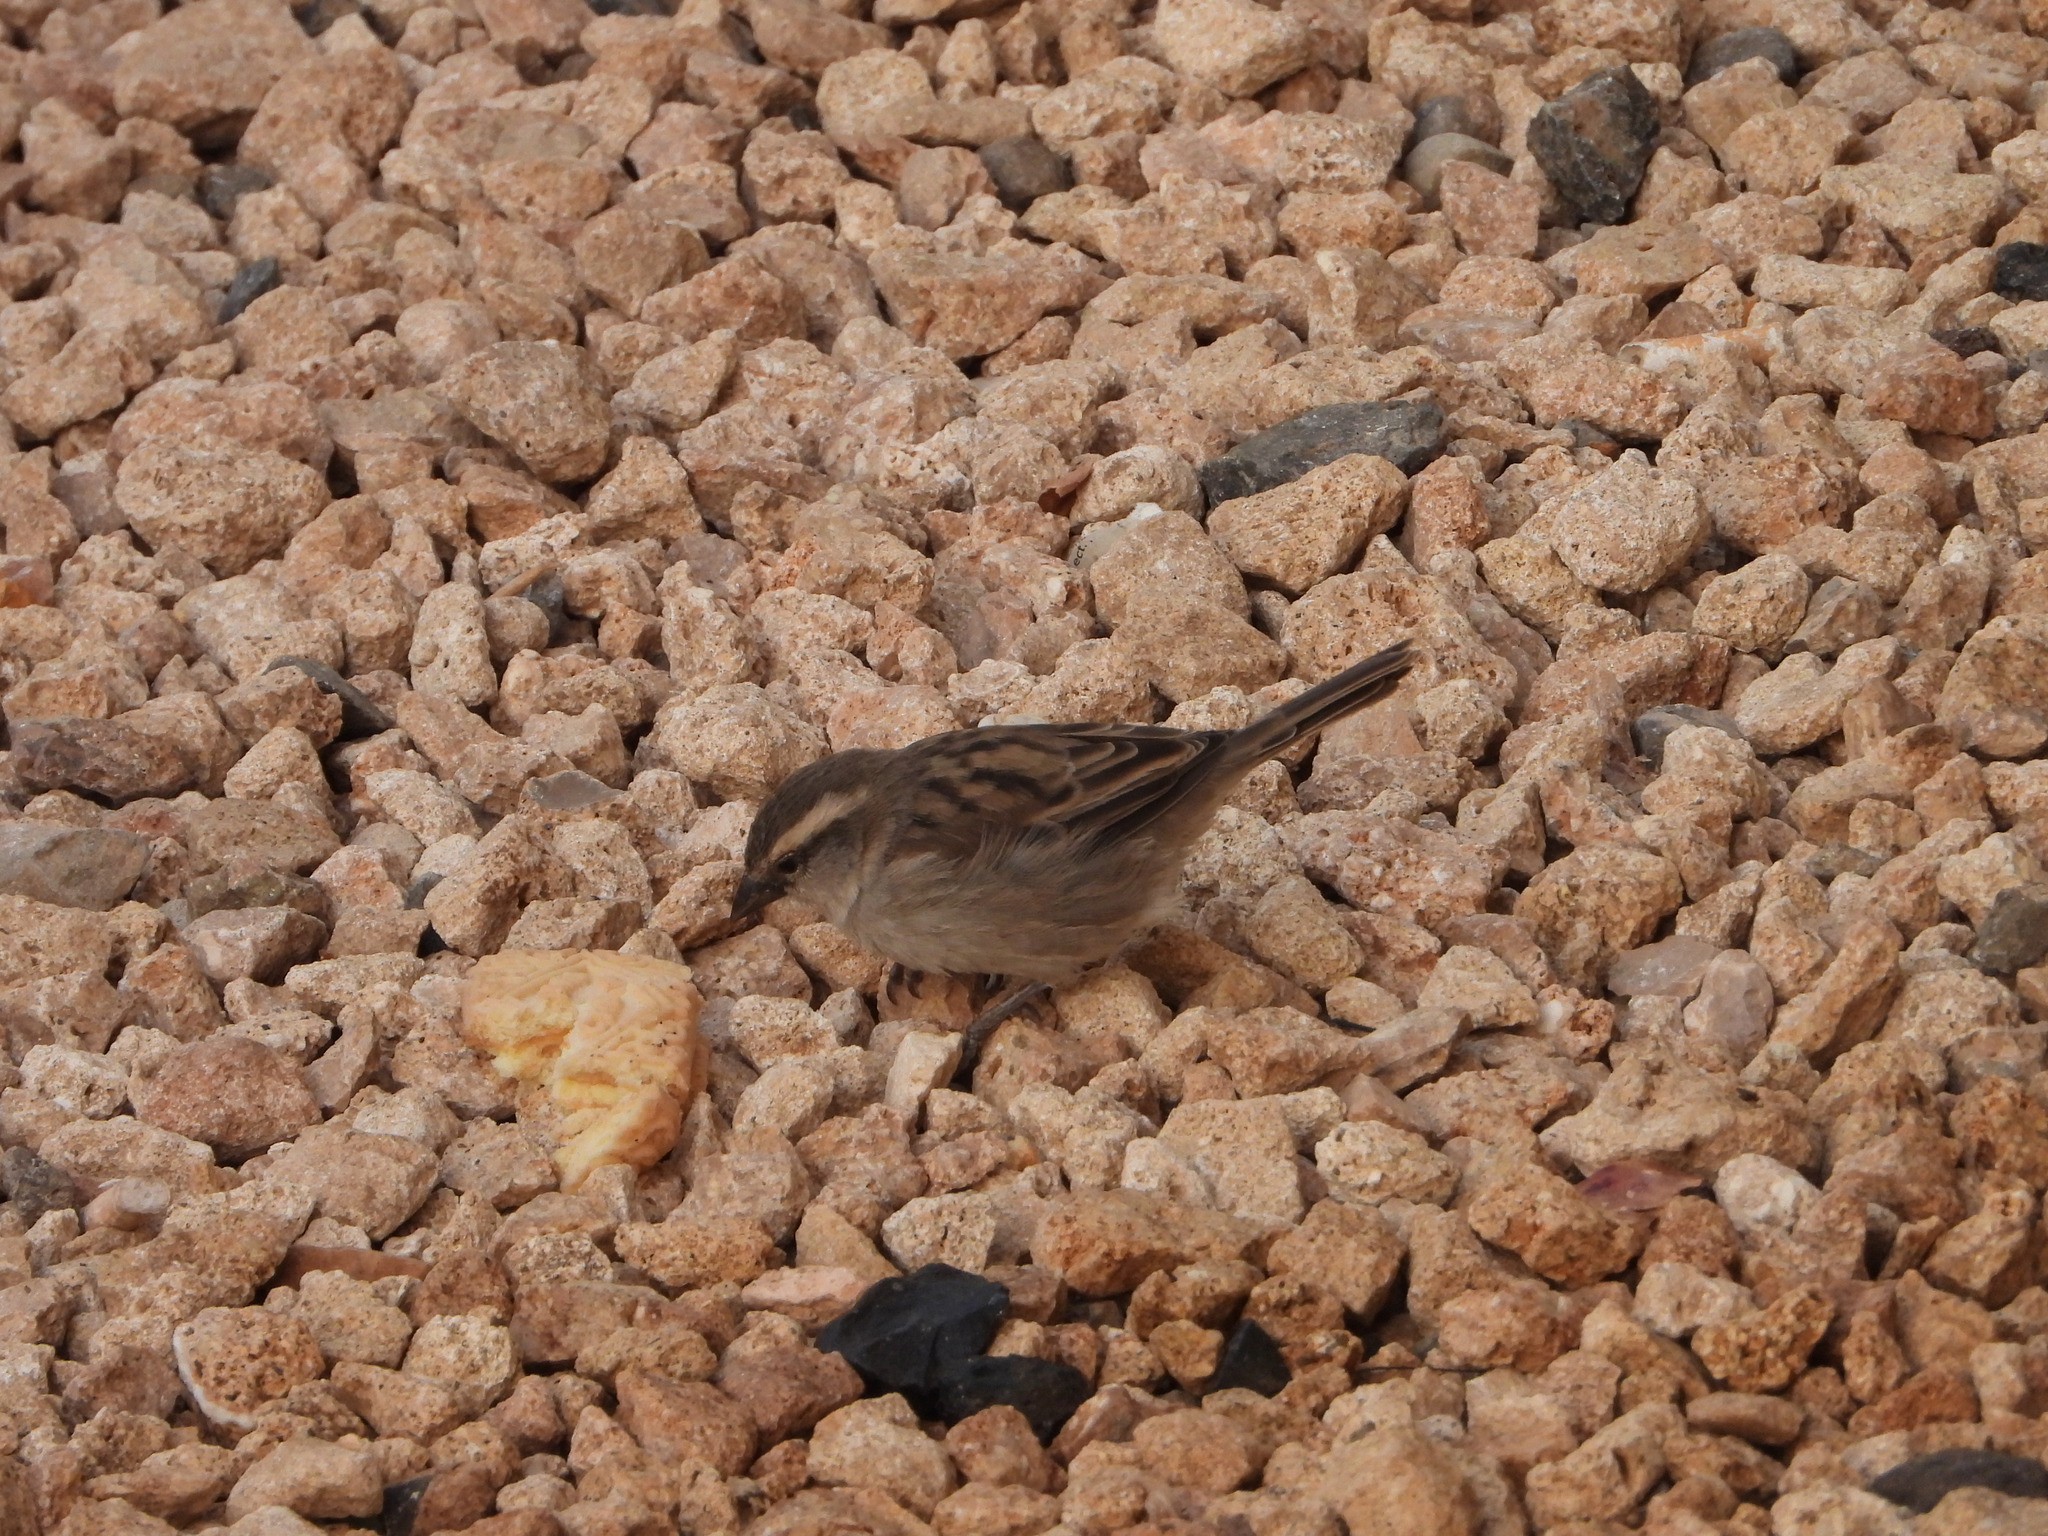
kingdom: Animalia
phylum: Chordata
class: Aves
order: Passeriformes
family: Passeridae
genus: Passer
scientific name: Passer iagoensis
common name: Iago sparrow
